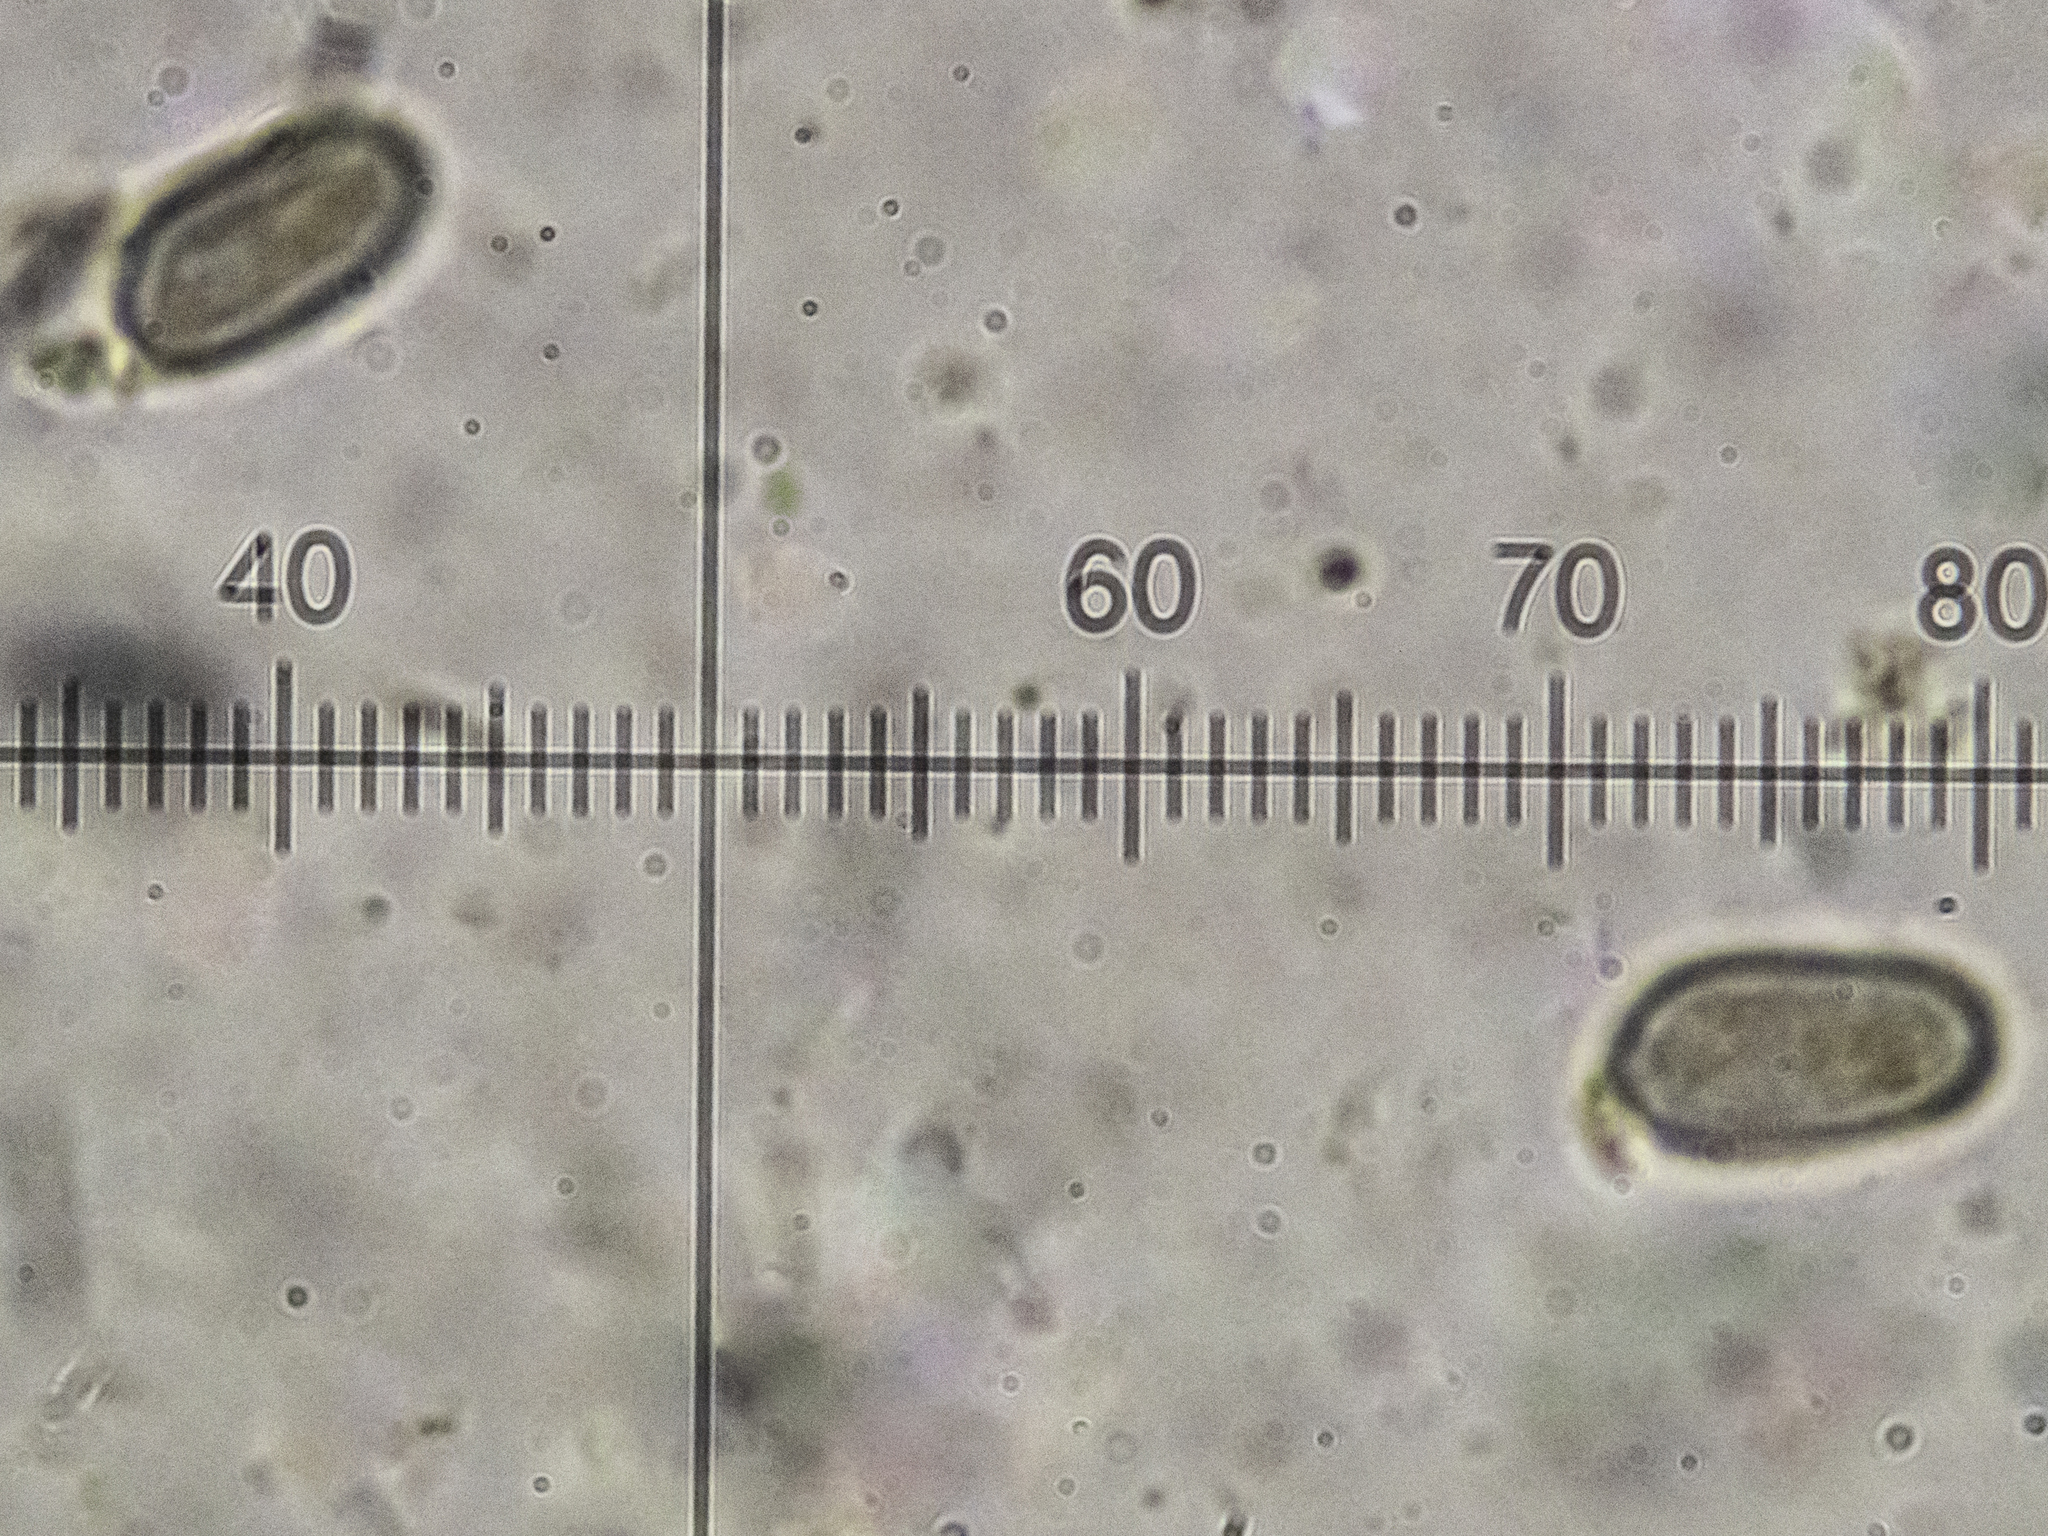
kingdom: Fungi
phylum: Basidiomycota
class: Agaricomycetes
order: Agaricales
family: Mycenaceae
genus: Mycena
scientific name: Mycena abramsii
